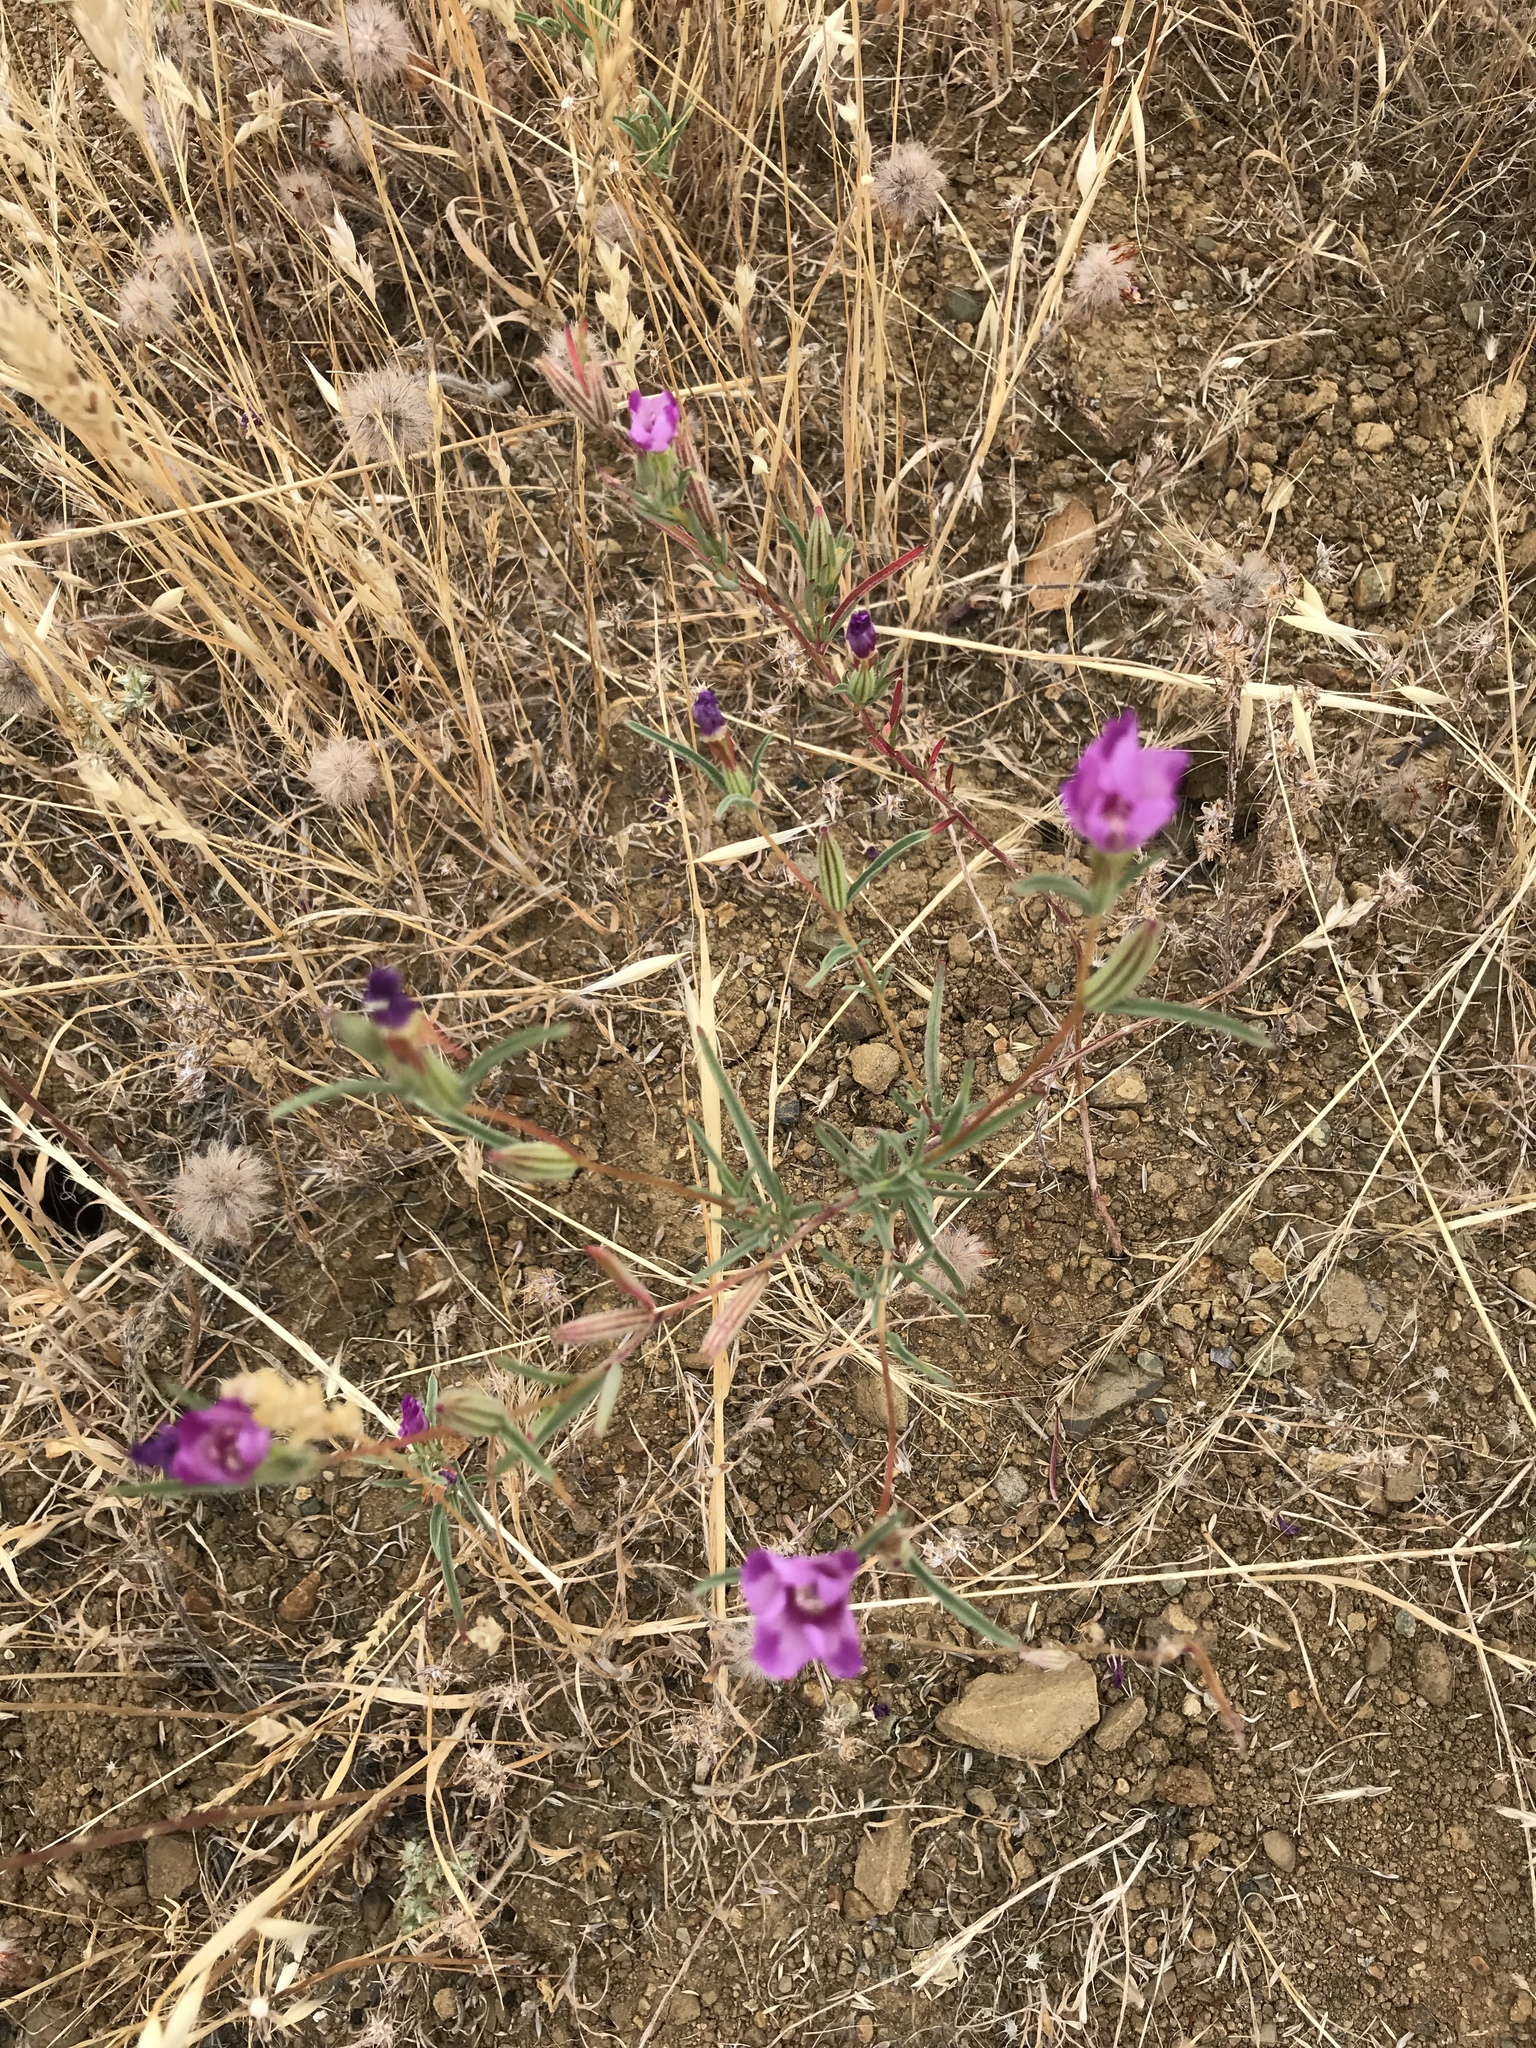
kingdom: Plantae
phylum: Tracheophyta
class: Magnoliopsida
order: Myrtales
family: Onagraceae
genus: Clarkia
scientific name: Clarkia purpurea
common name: Purple clarkia
